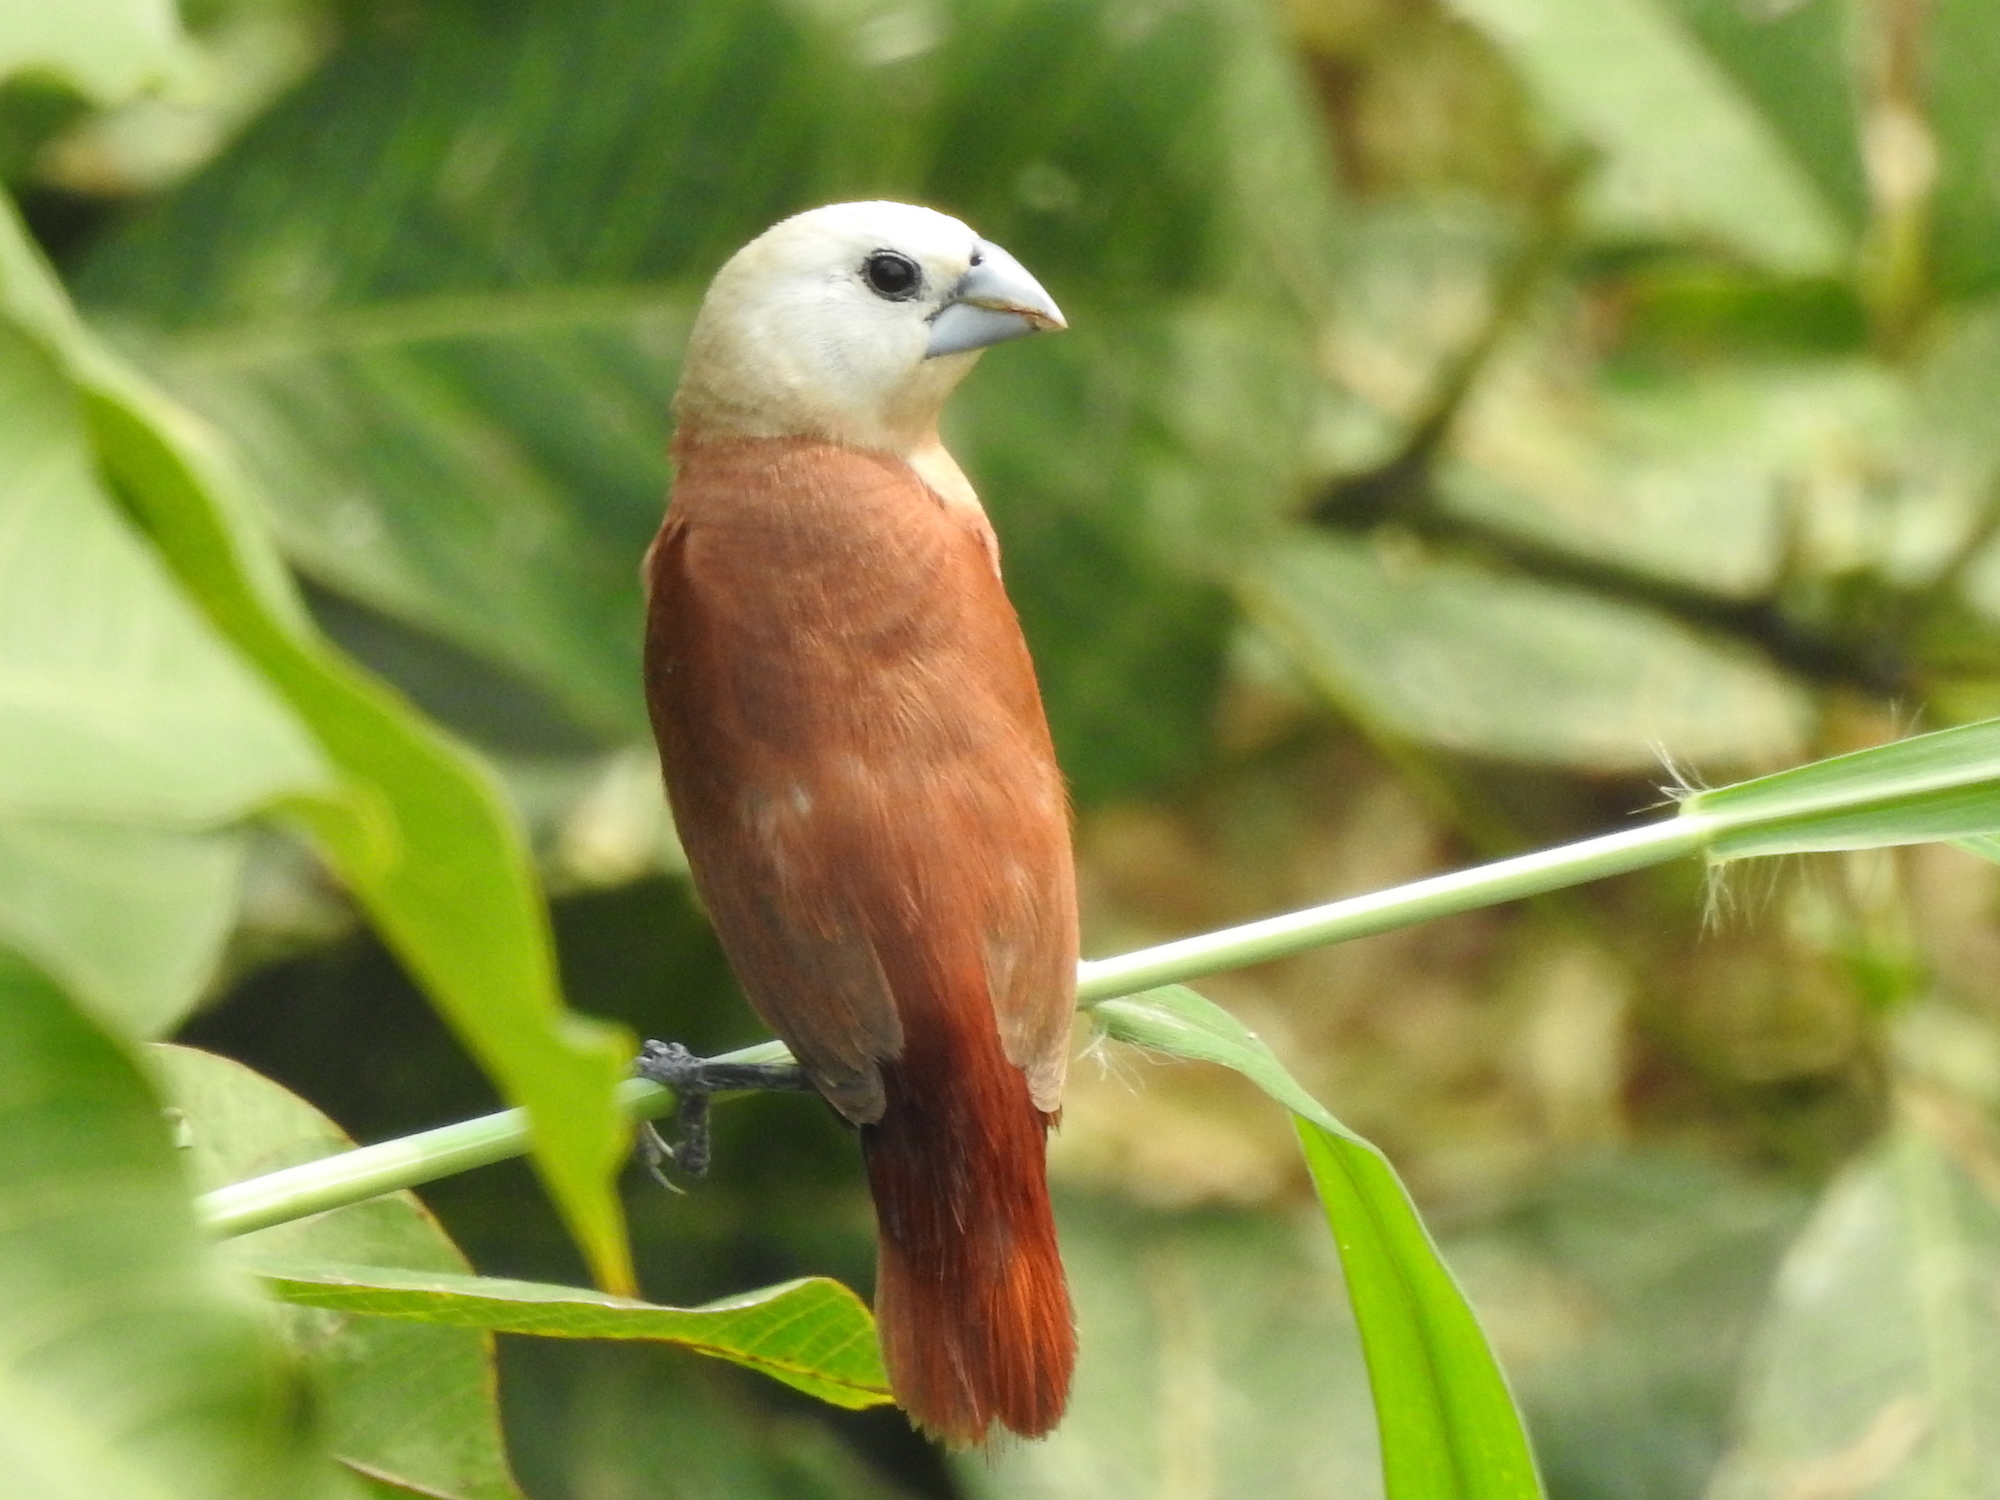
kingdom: Animalia
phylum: Chordata
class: Aves
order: Passeriformes
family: Estrildidae
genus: Lonchura
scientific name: Lonchura maja
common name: White-headed munia
